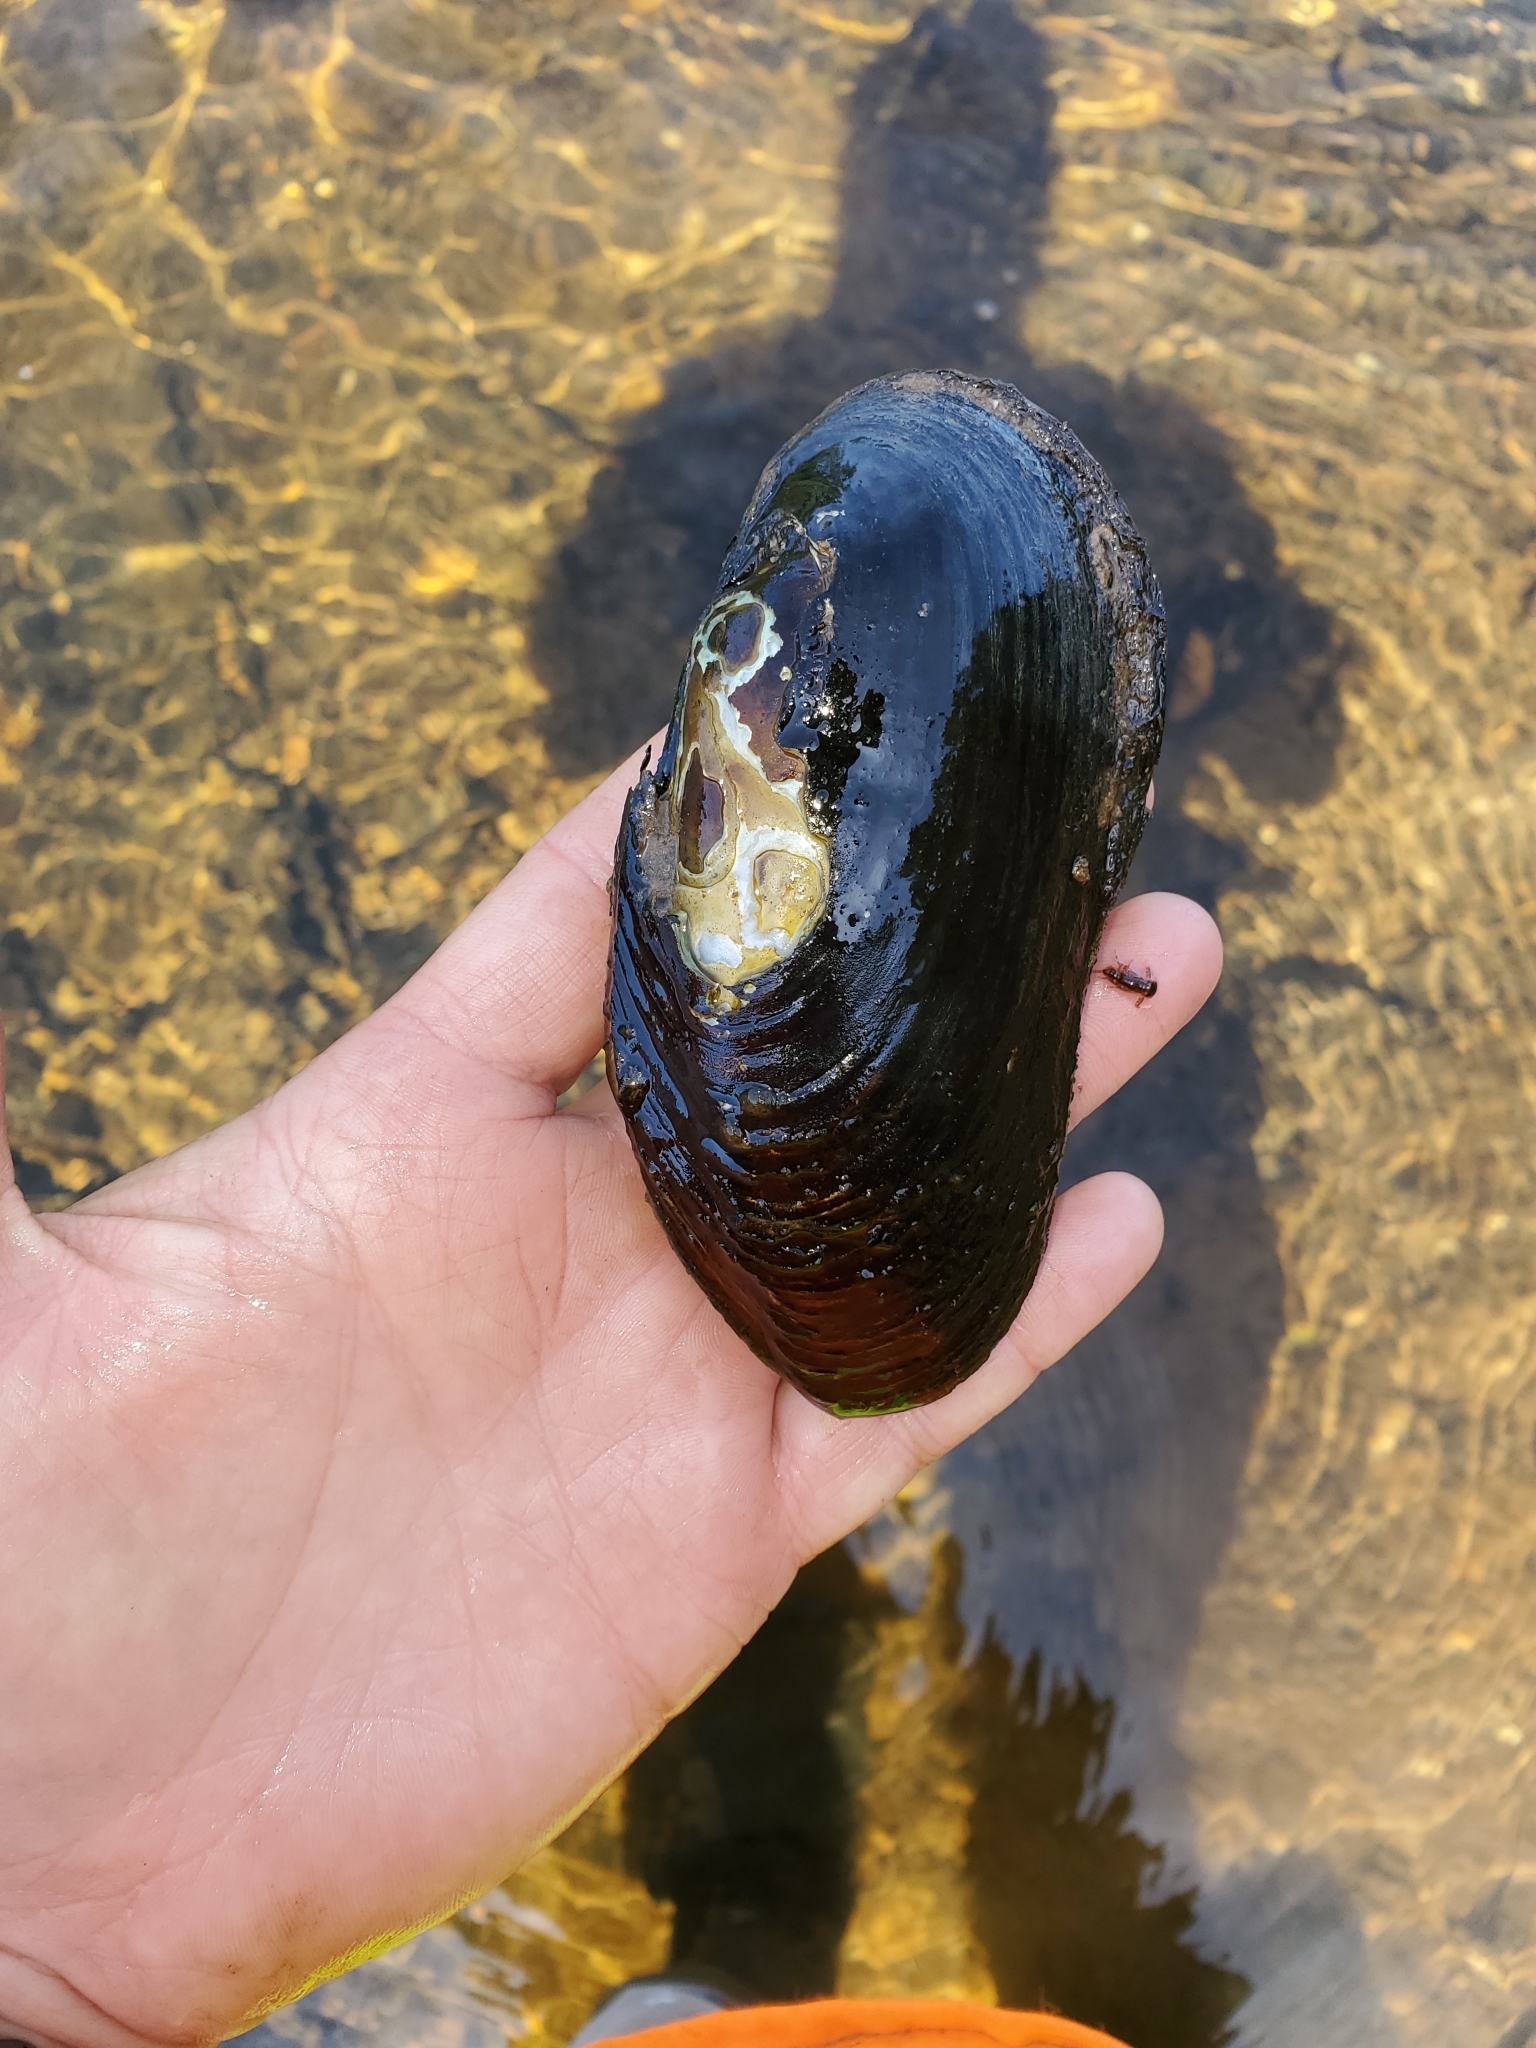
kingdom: Animalia
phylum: Mollusca
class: Bivalvia
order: Unionida
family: Margaritiferidae
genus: Margaritifera
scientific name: Margaritifera margaritifera
